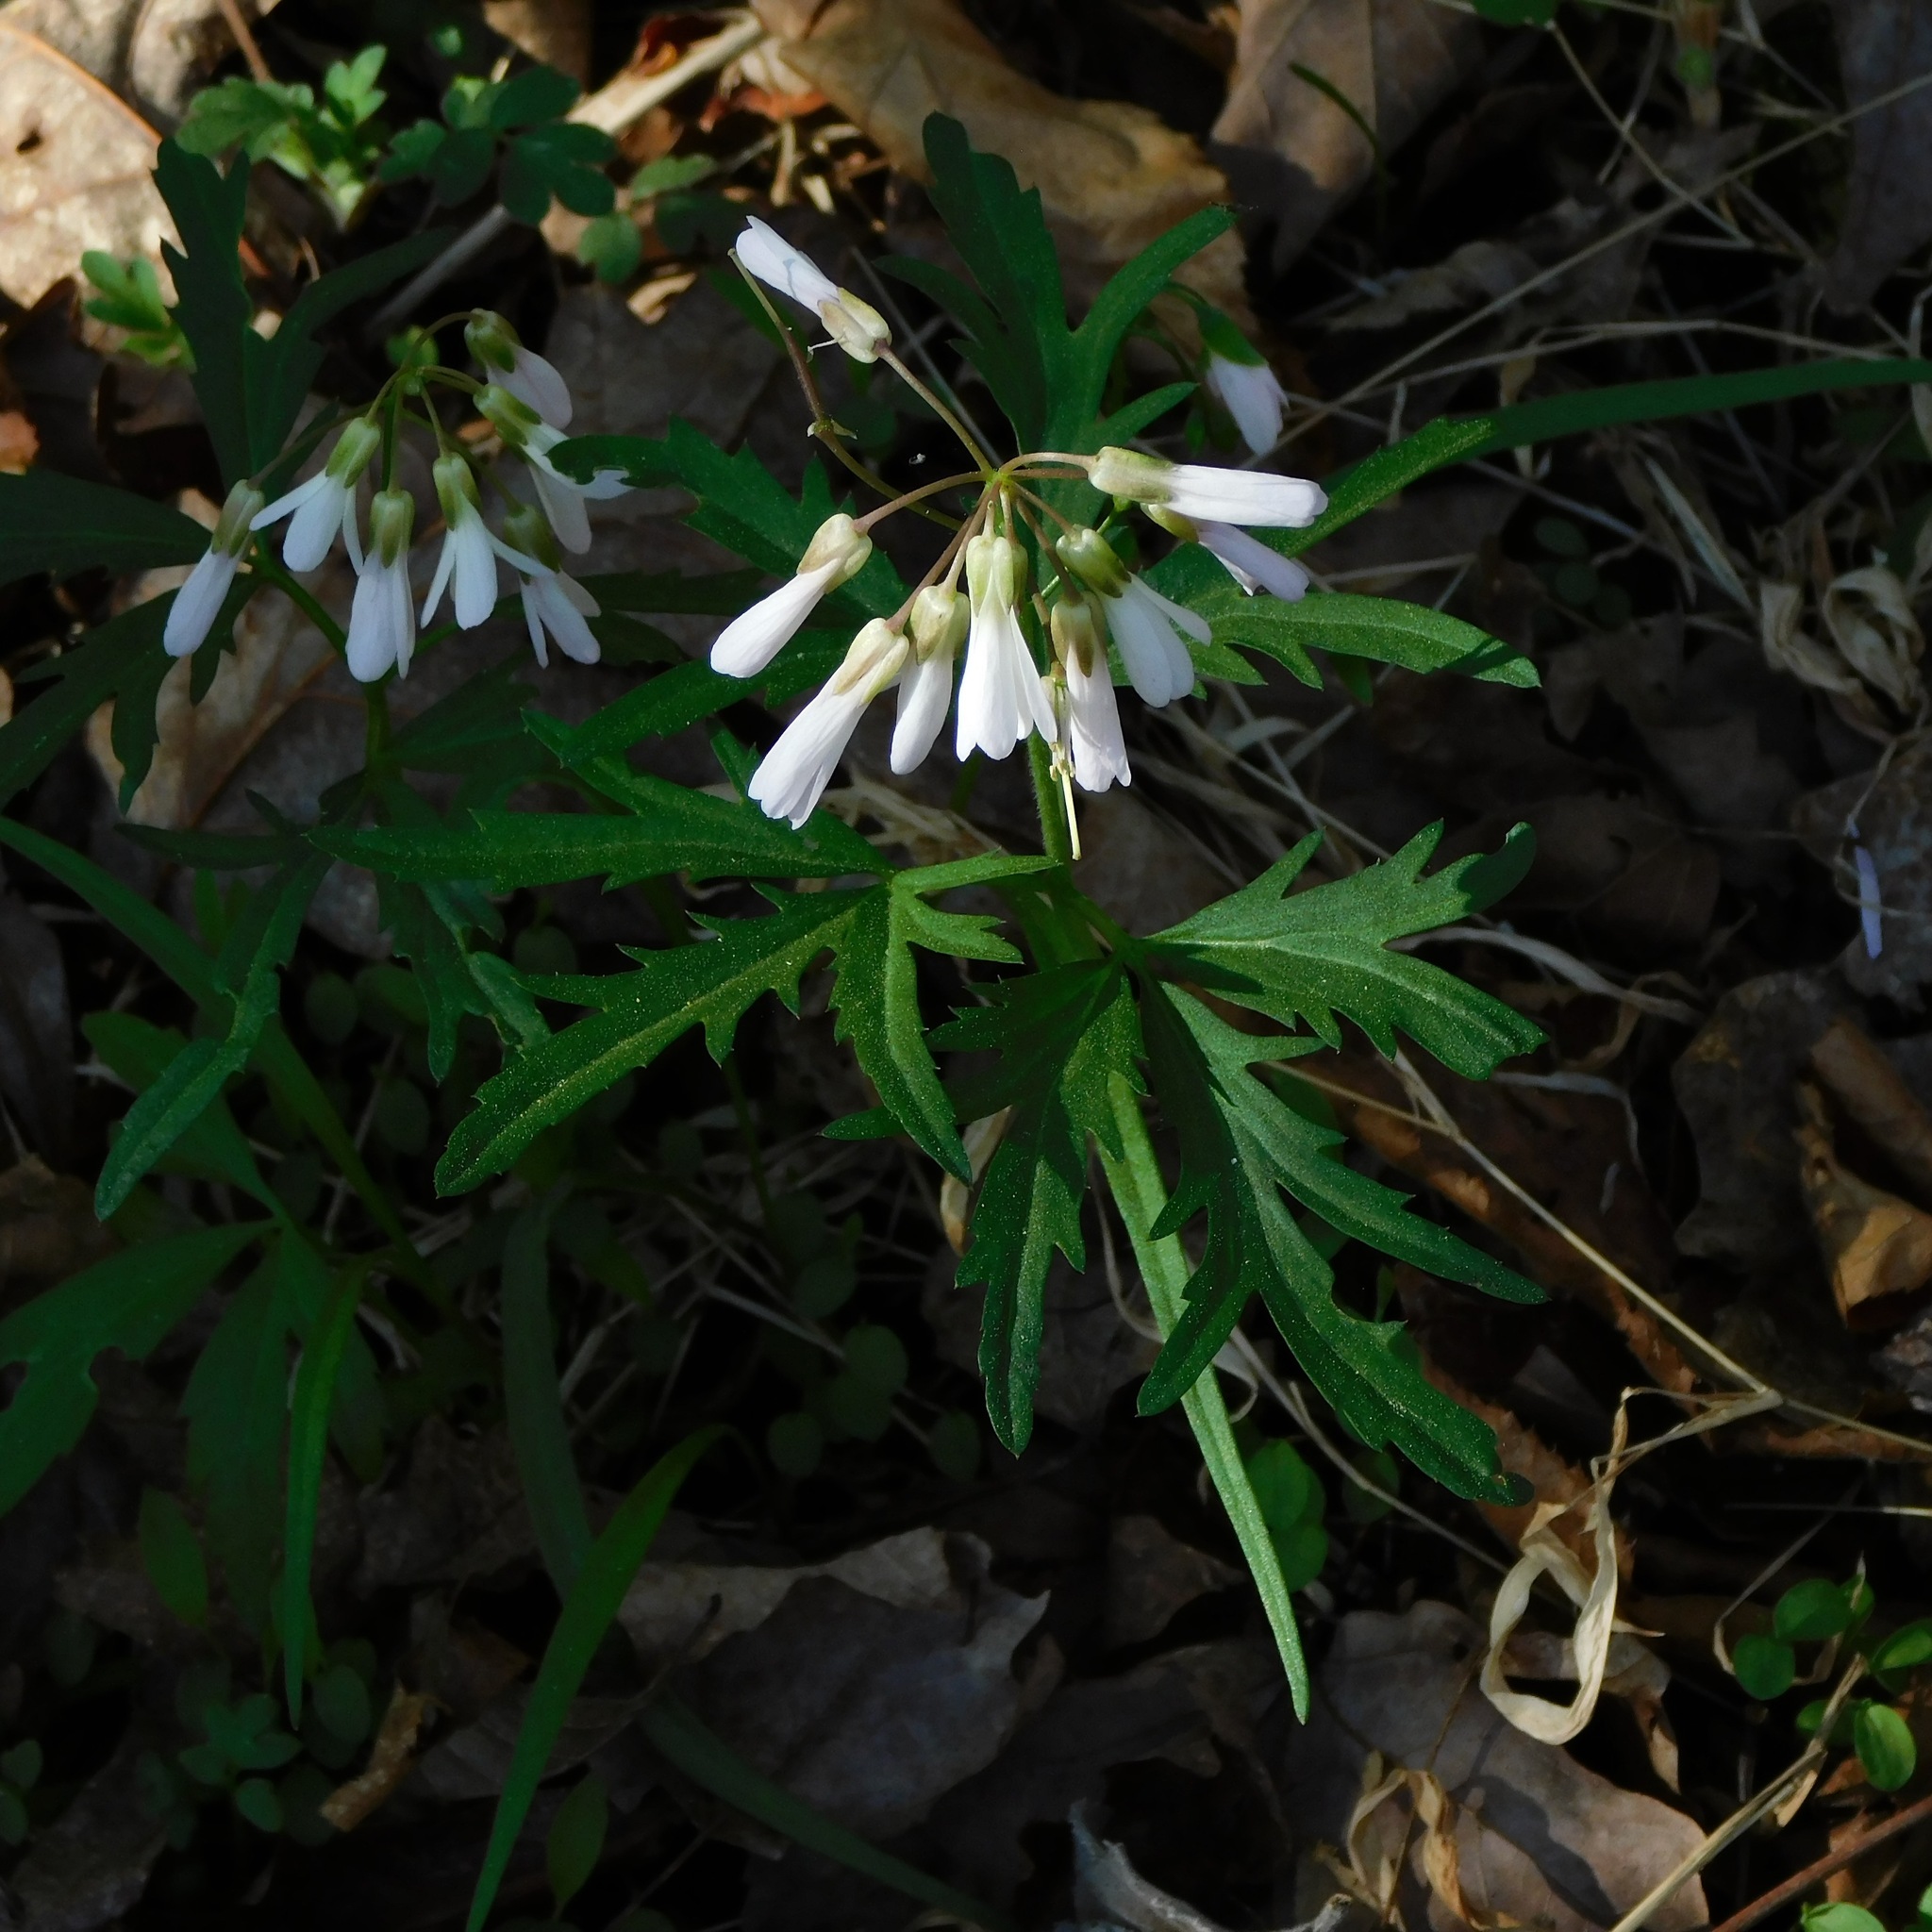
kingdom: Plantae
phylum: Tracheophyta
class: Magnoliopsida
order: Brassicales
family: Brassicaceae
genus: Cardamine
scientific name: Cardamine concatenata
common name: Cut-leaf toothcup
